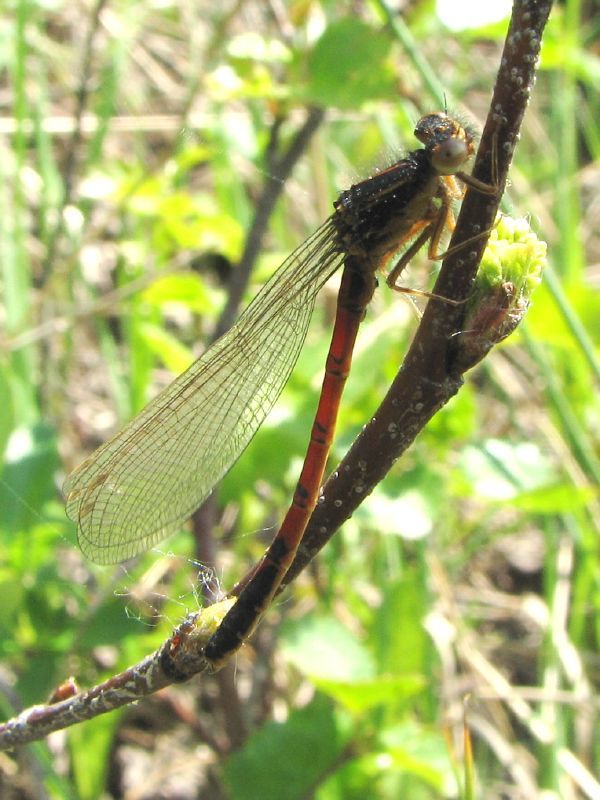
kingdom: Animalia
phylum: Arthropoda
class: Insecta
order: Odonata
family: Coenagrionidae
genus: Amphiagrion
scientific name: Amphiagrion abbreviatum
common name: Western red damsel
